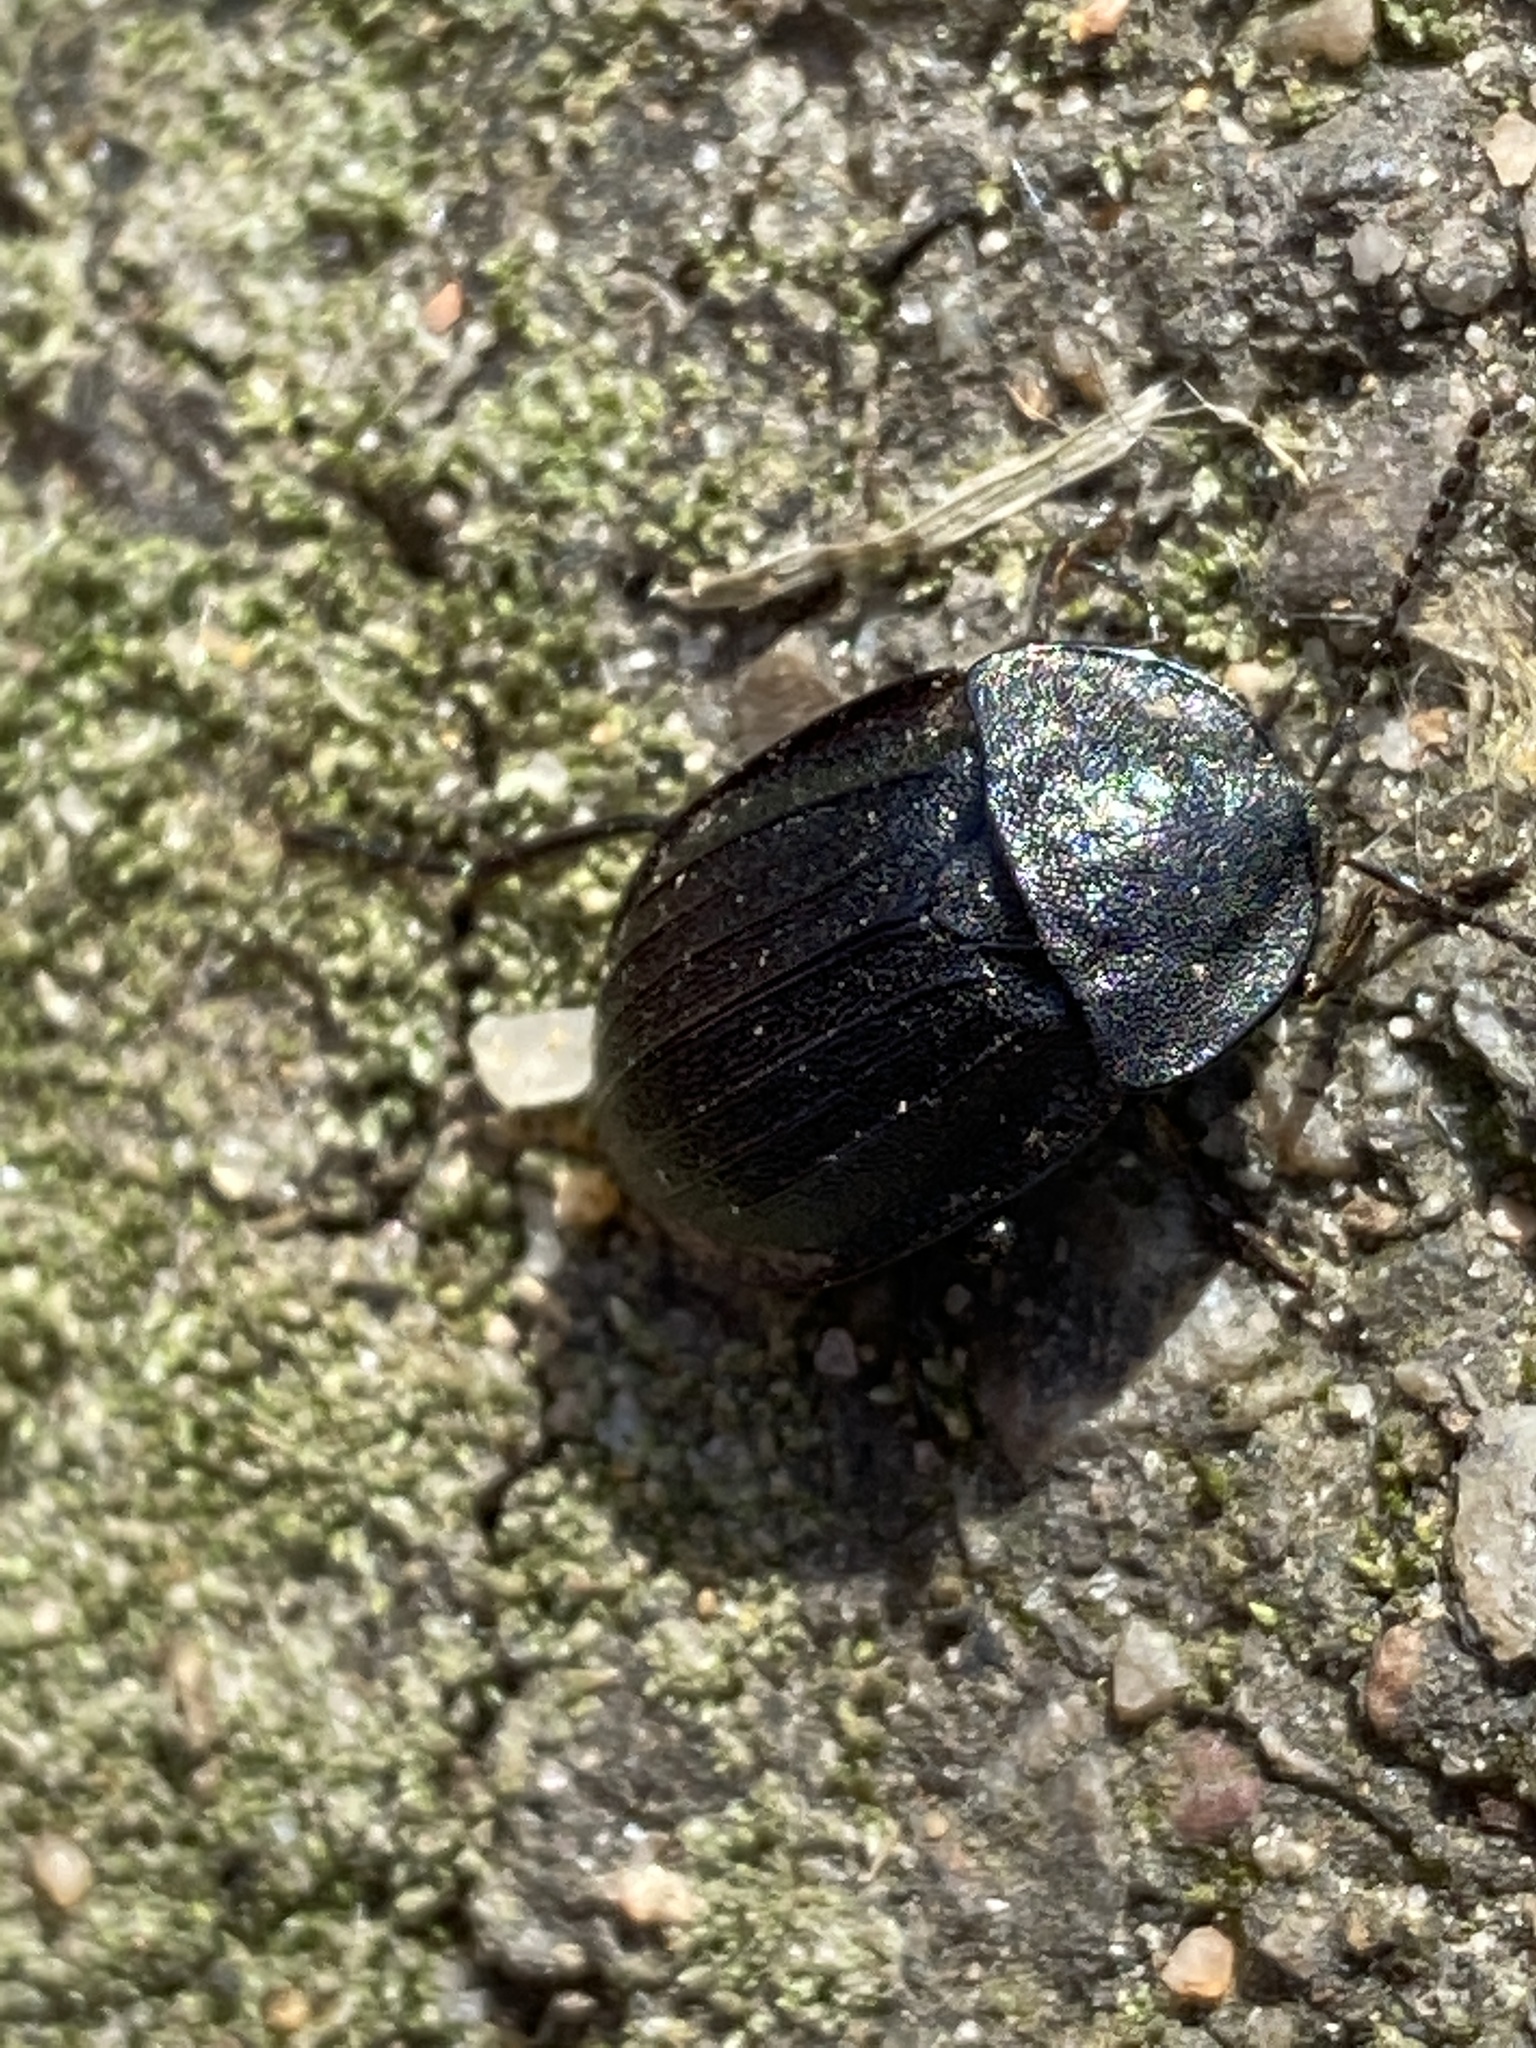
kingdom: Animalia
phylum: Arthropoda
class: Insecta
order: Coleoptera
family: Staphylinidae
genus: Silpha
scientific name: Silpha atrata
